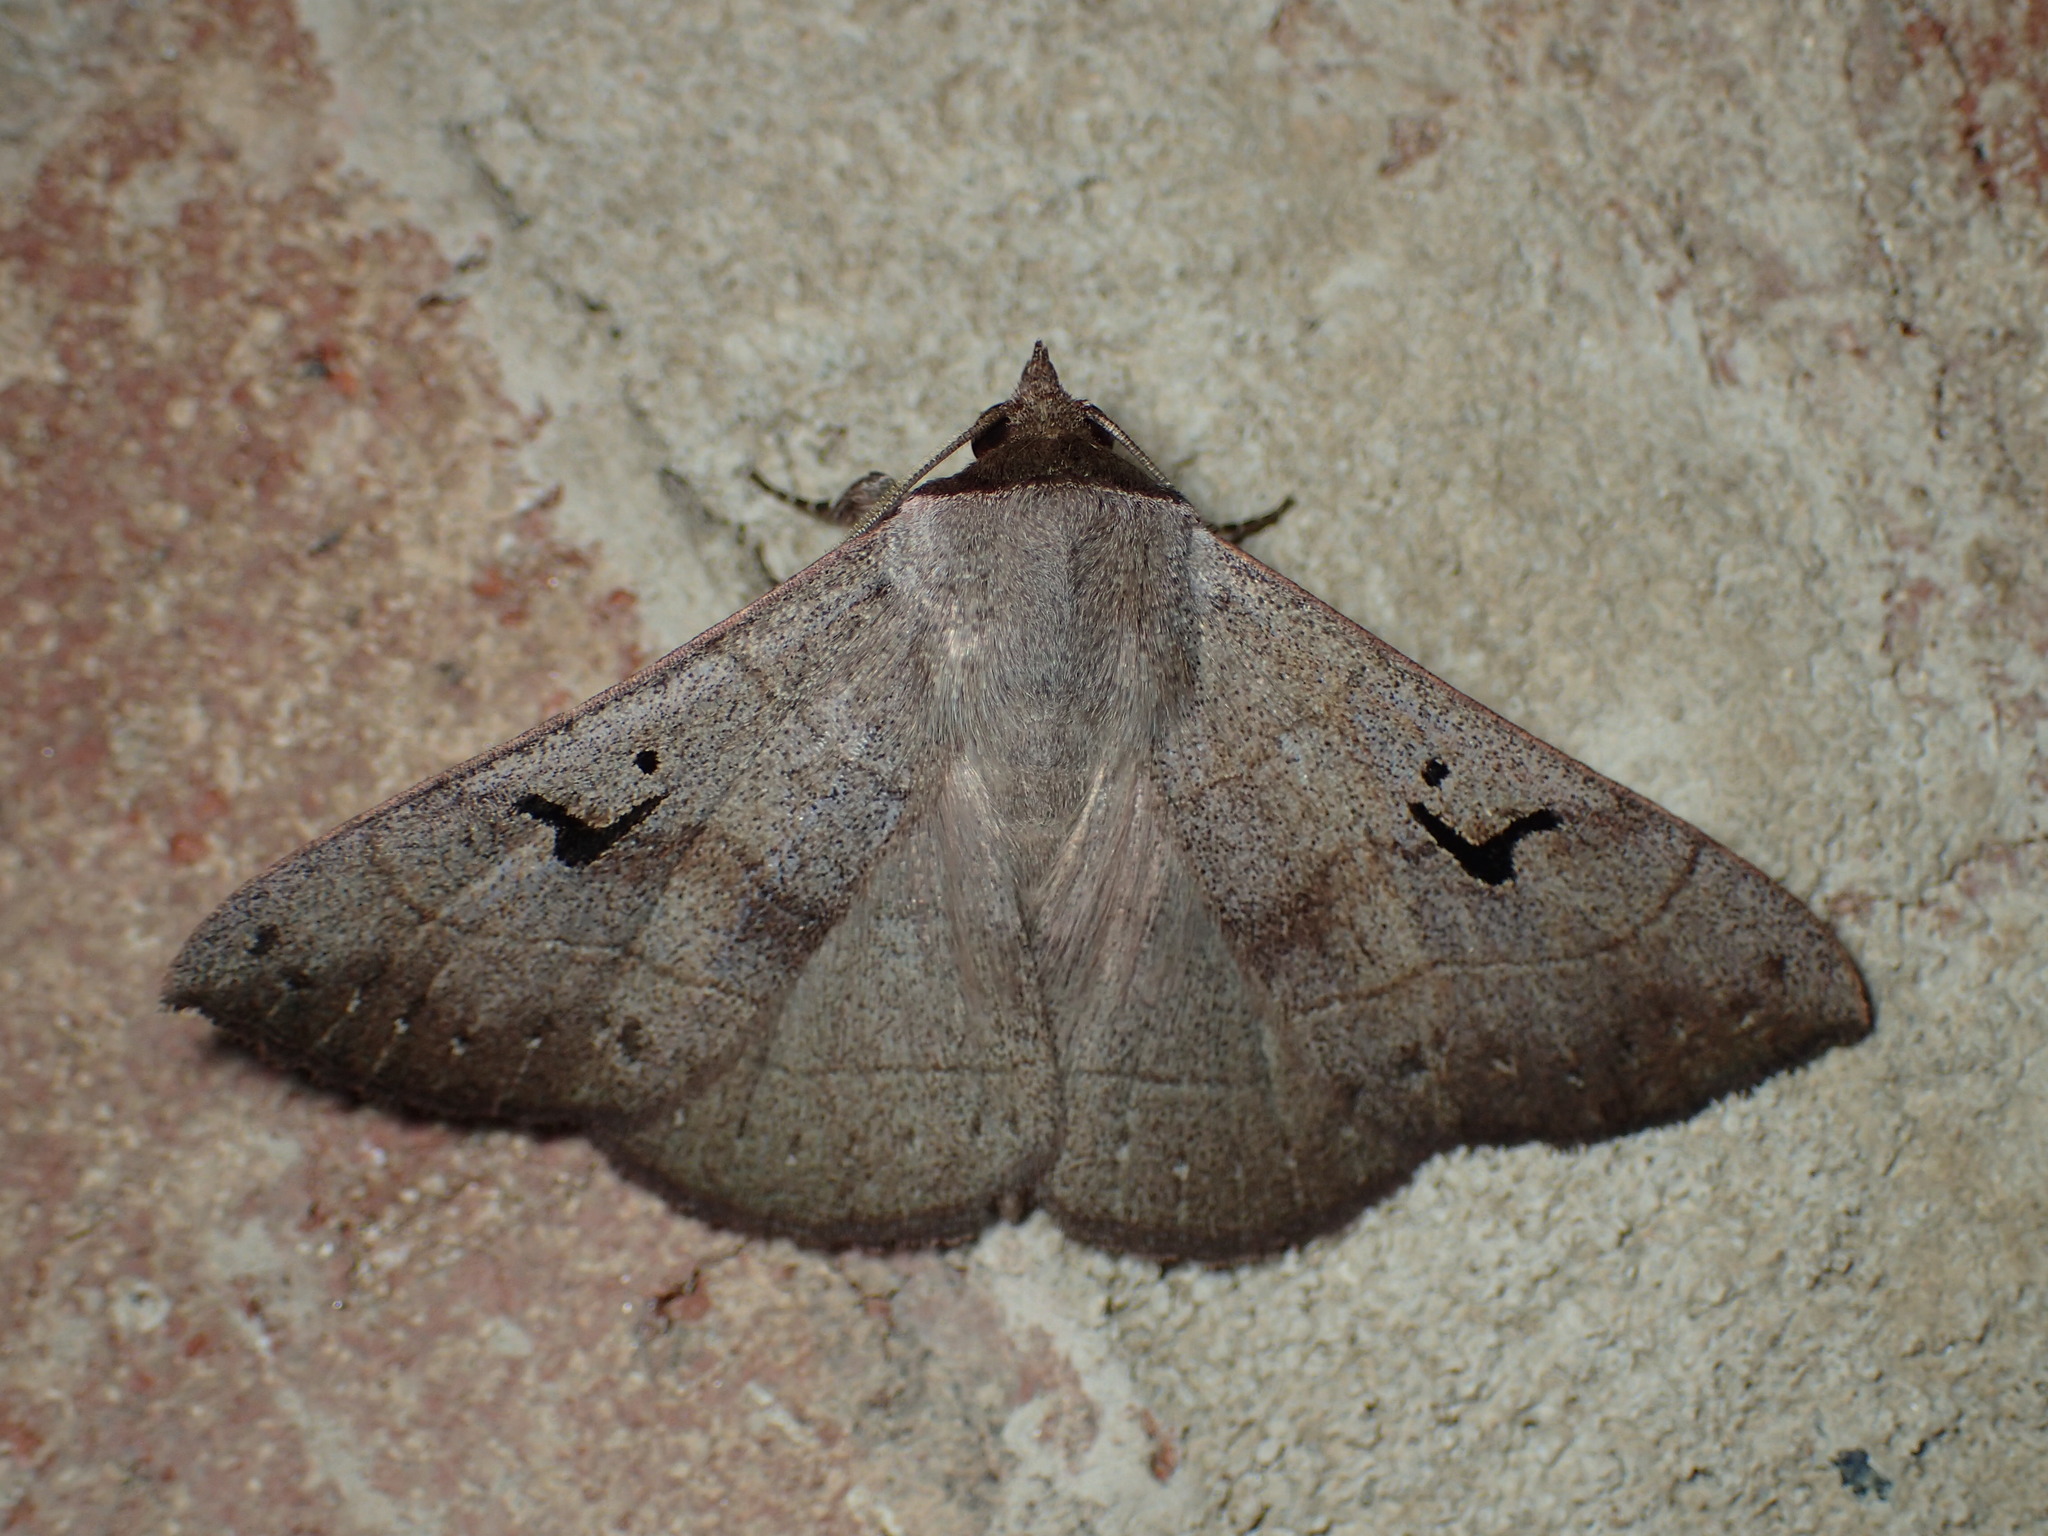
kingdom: Animalia
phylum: Arthropoda
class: Insecta
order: Lepidoptera
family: Erebidae
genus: Panopoda
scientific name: Panopoda carneicosta
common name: Brown panopoda moth
